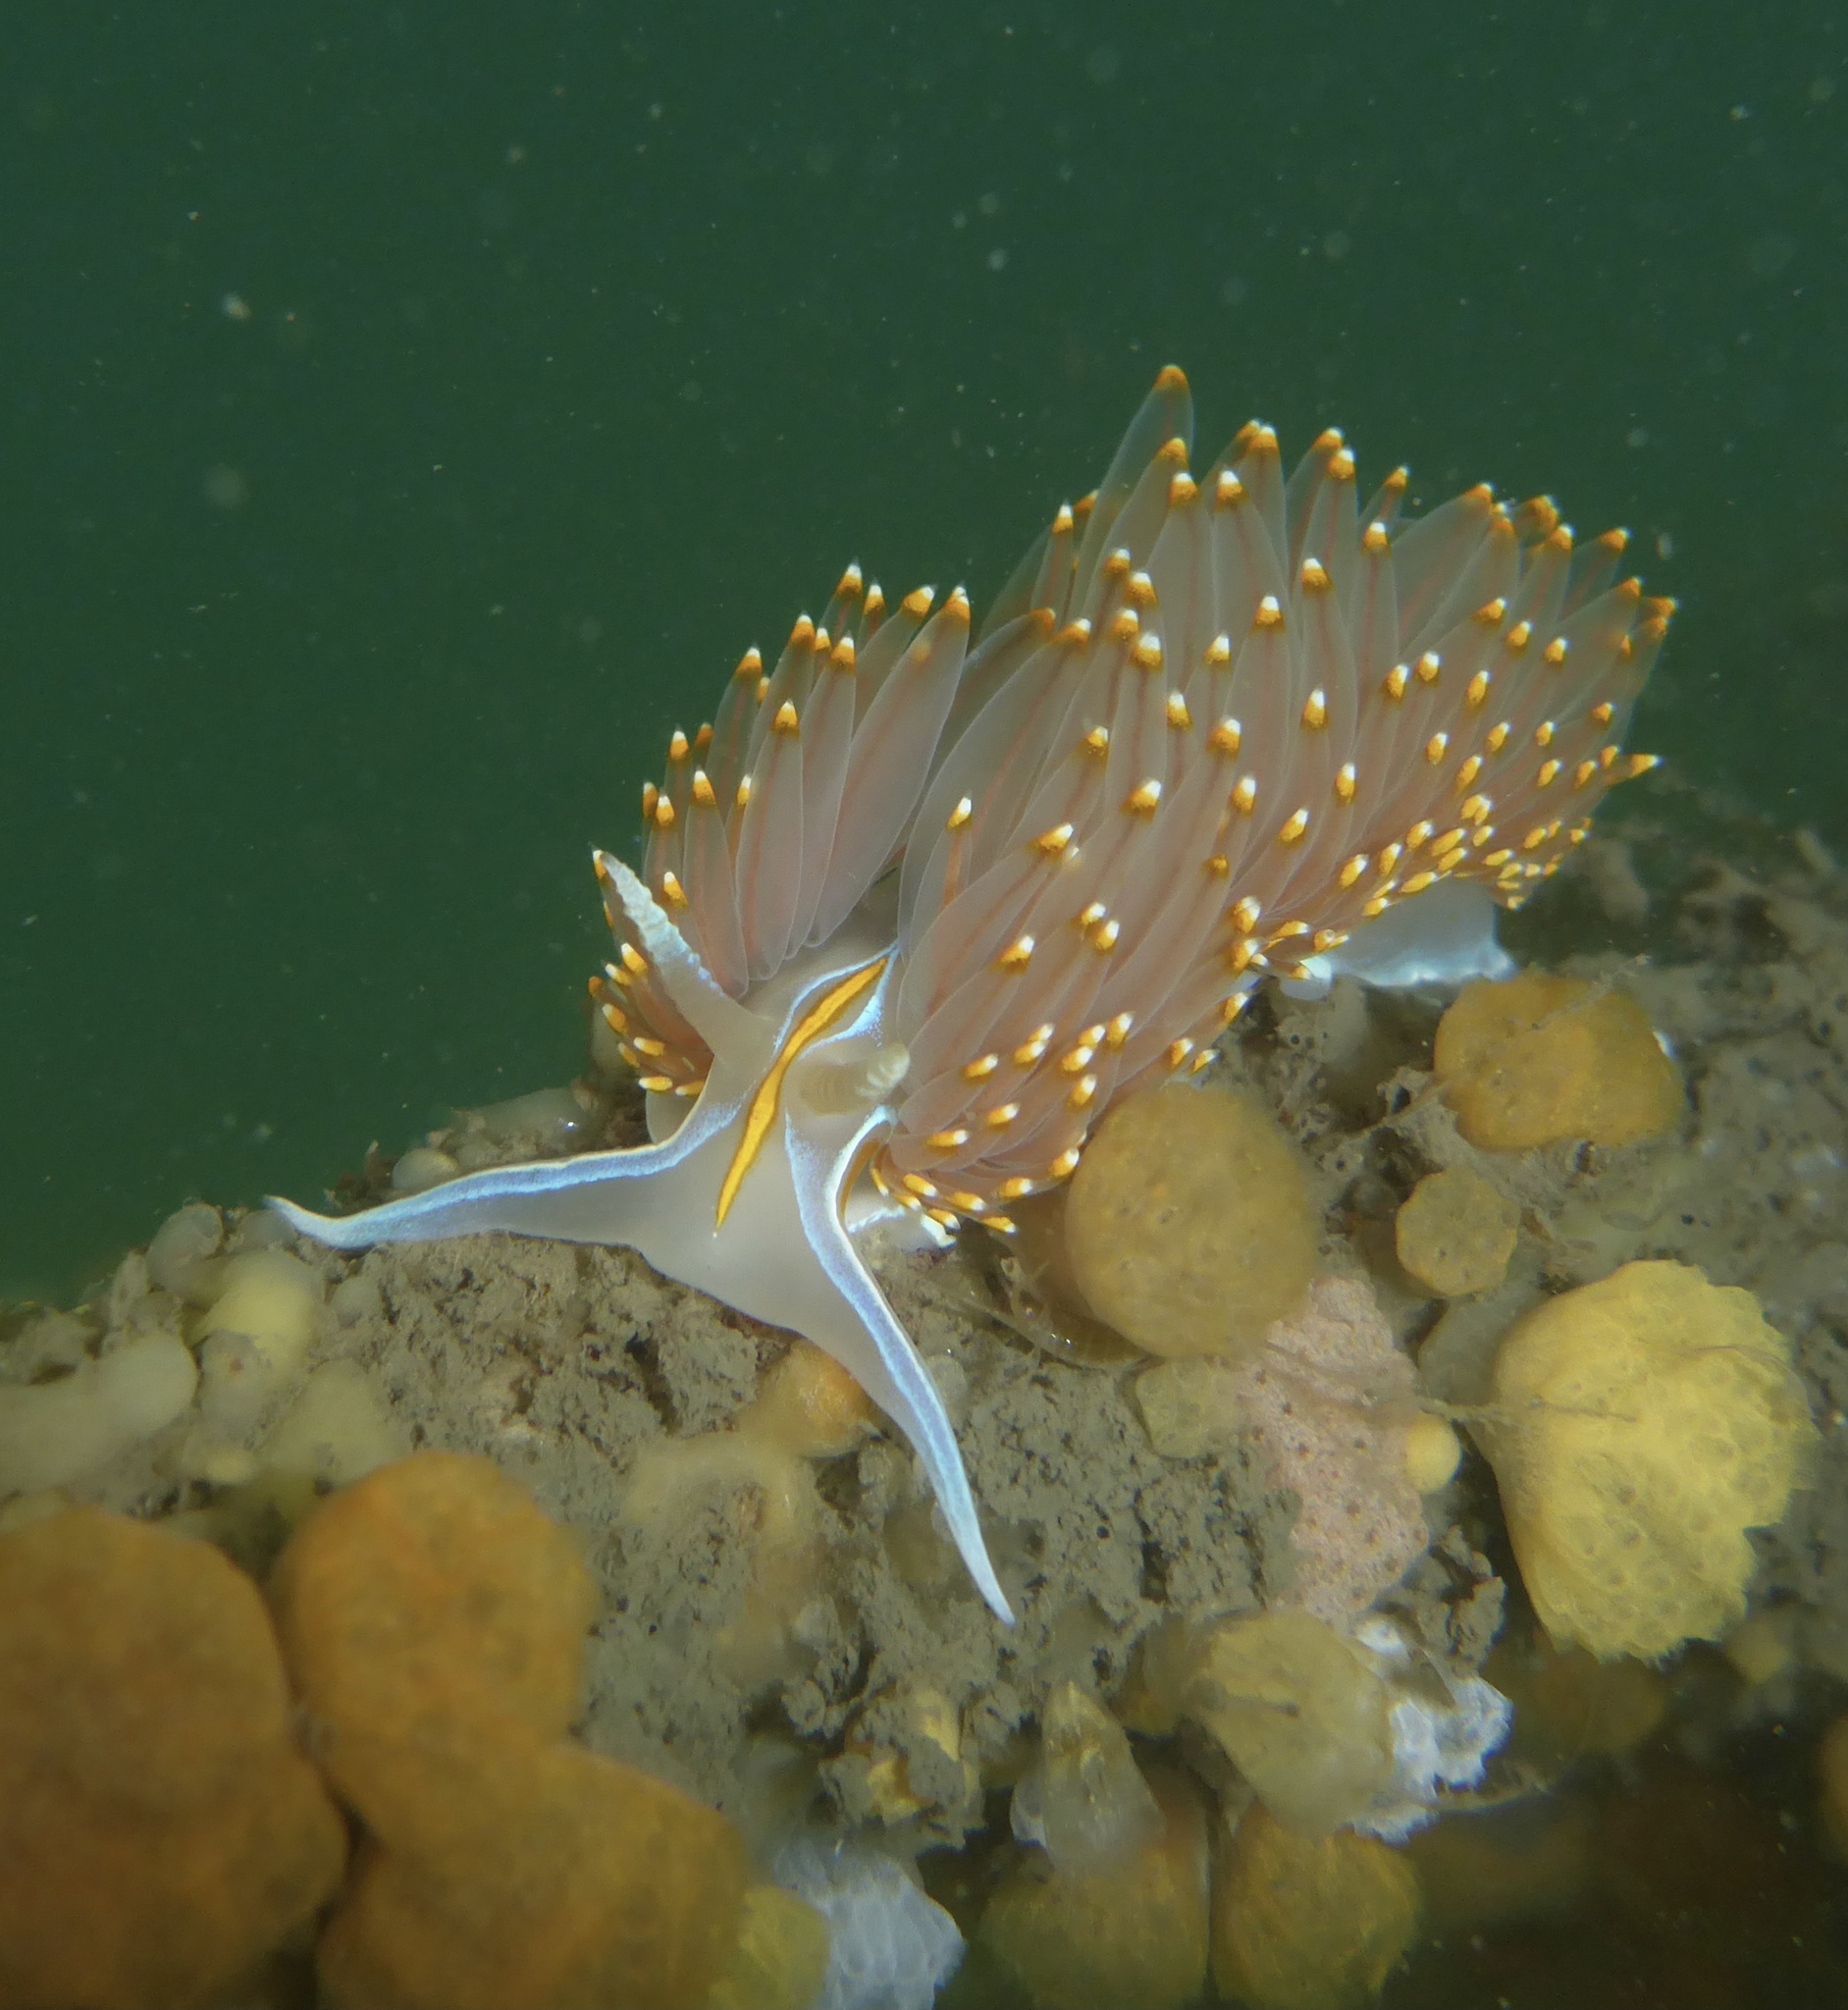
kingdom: Animalia
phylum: Mollusca
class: Gastropoda
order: Nudibranchia
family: Myrrhinidae
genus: Hermissenda
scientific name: Hermissenda opalescens
